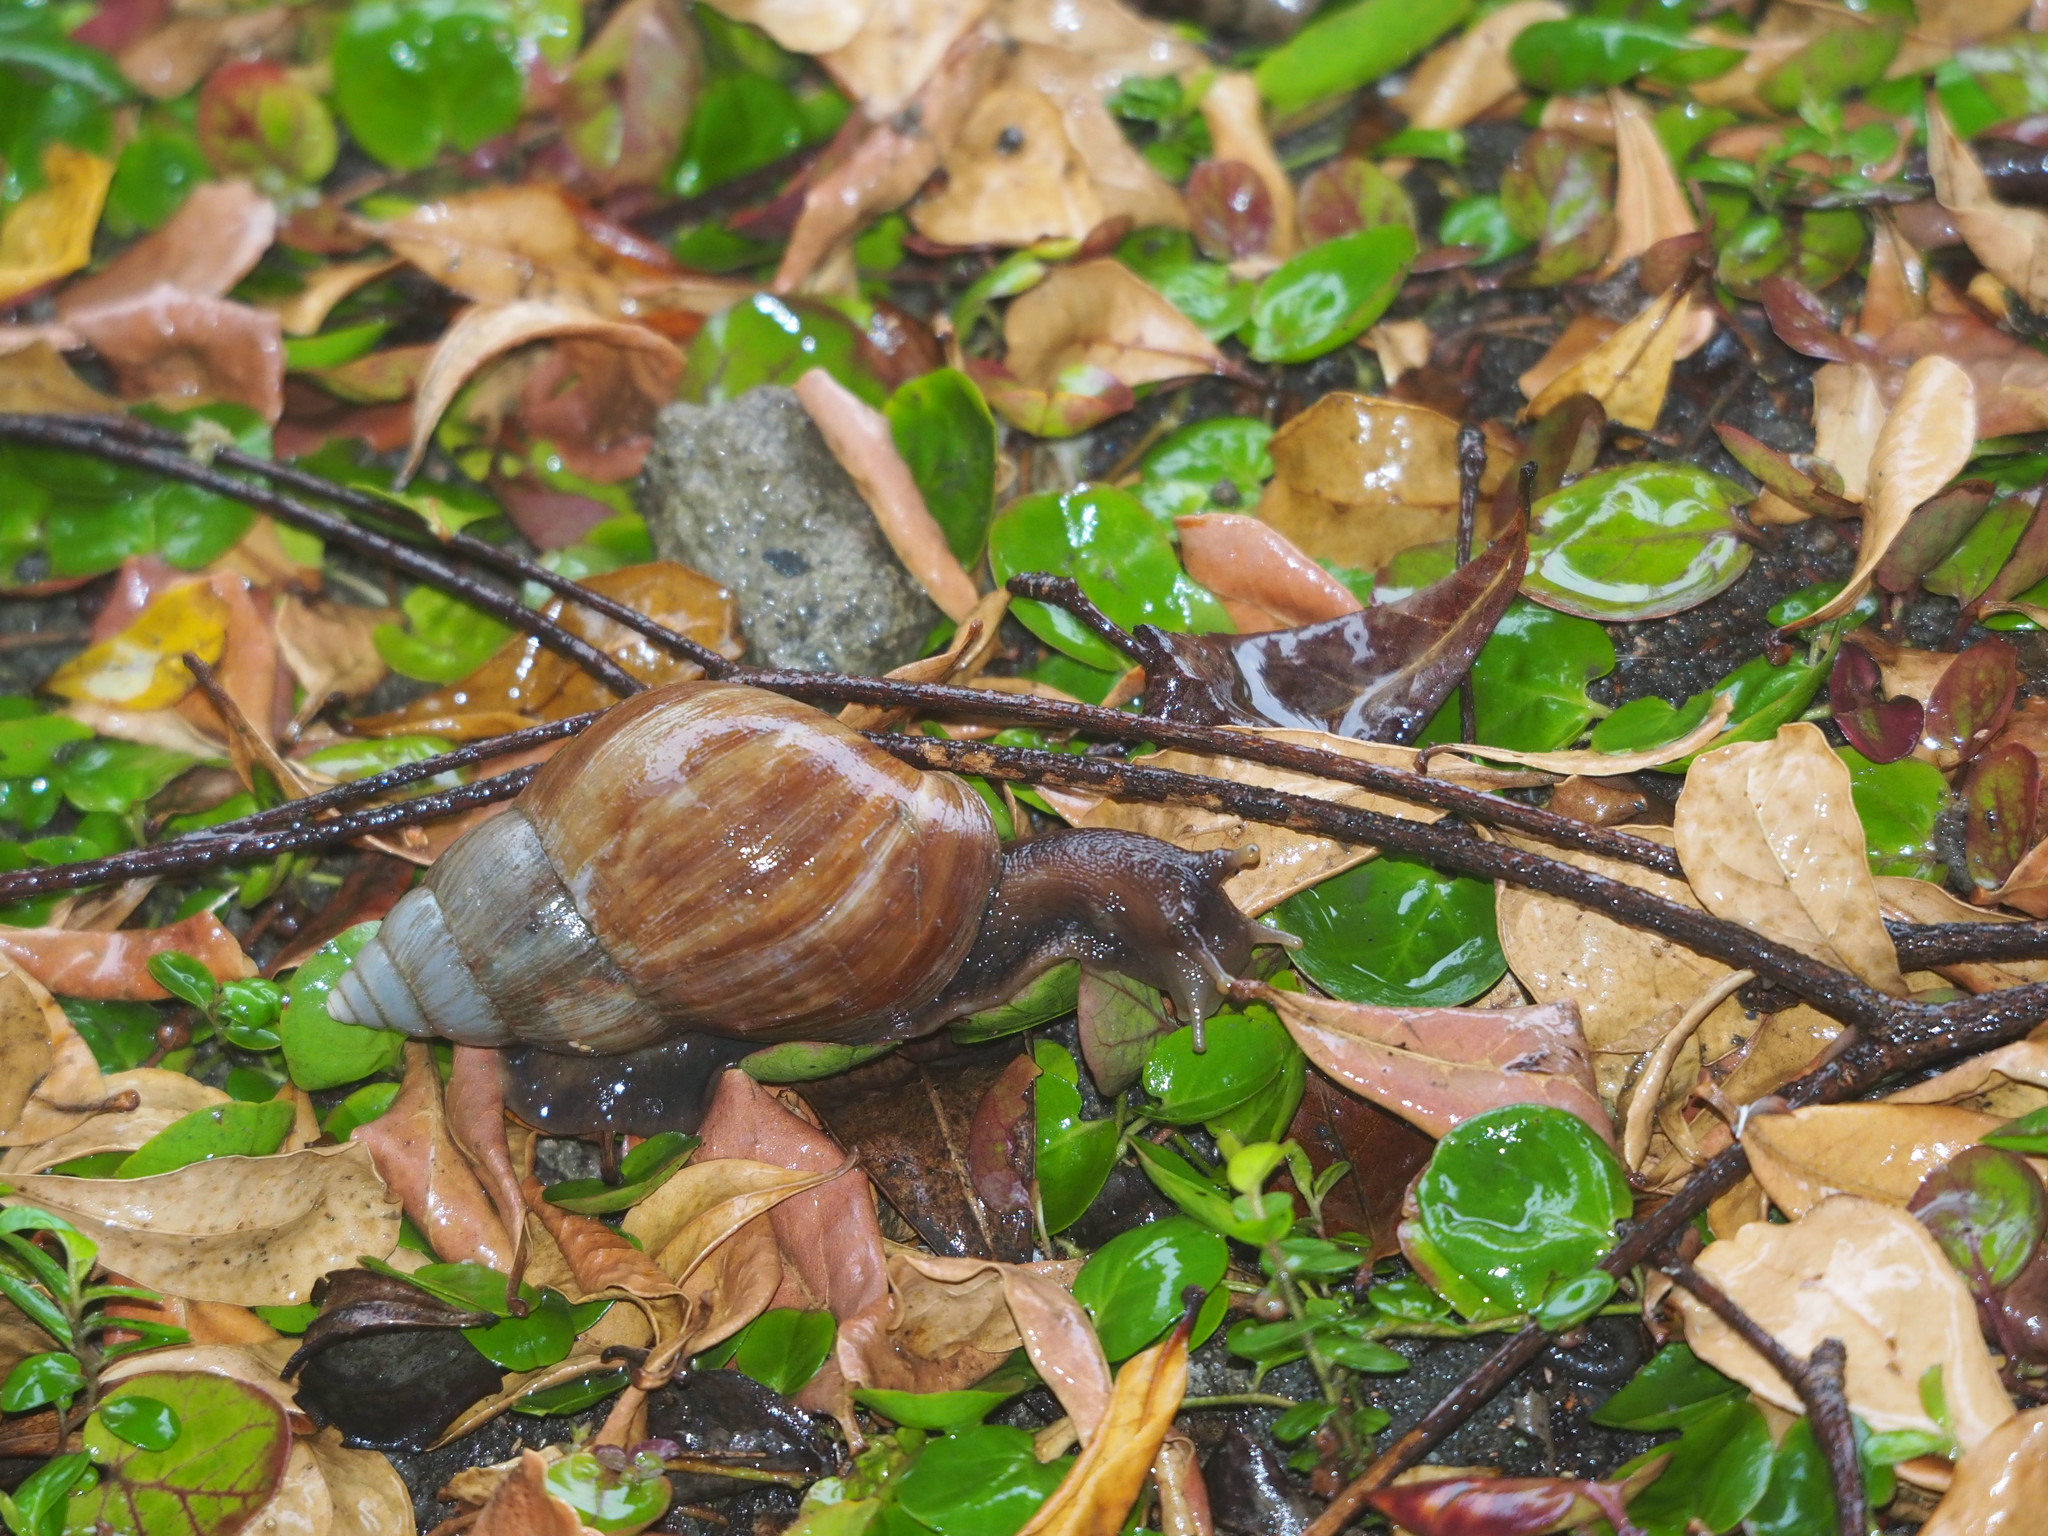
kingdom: Animalia
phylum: Mollusca
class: Gastropoda
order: Stylommatophora
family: Achatinidae
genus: Lissachatina
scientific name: Lissachatina fulica
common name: Giant african snail
